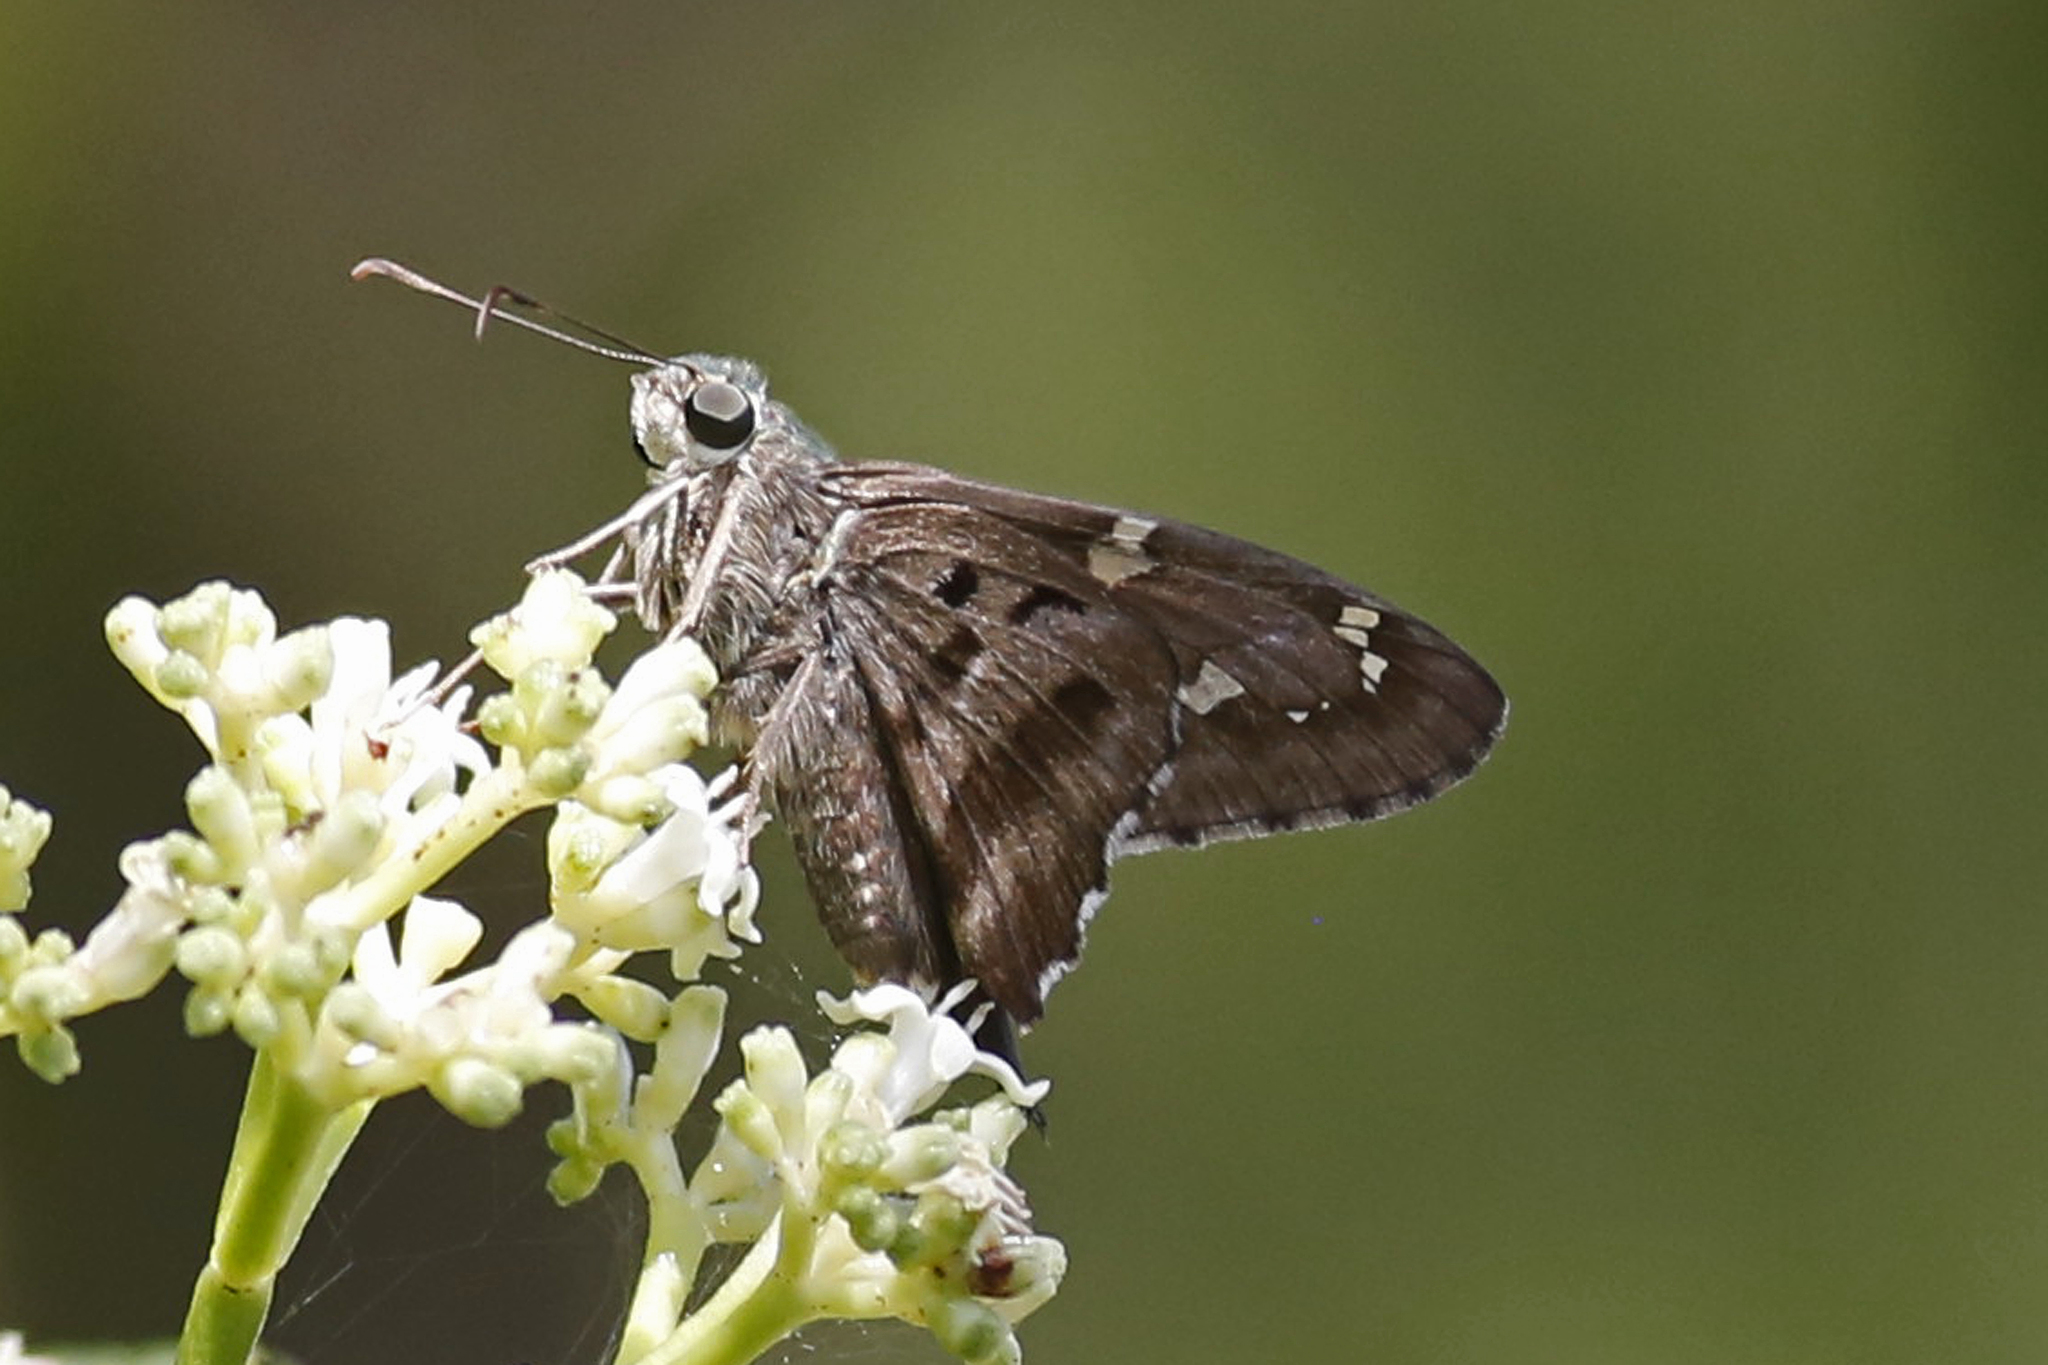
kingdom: Animalia
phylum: Arthropoda
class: Insecta
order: Lepidoptera
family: Hesperiidae
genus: Urbanus
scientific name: Urbanus proteus
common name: Long-tailed skipper
